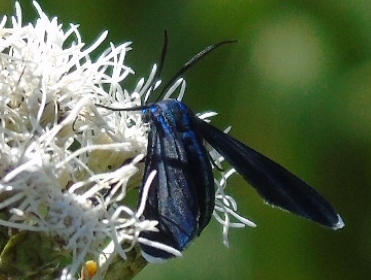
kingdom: Animalia
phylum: Arthropoda
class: Insecta
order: Lepidoptera
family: Erebidae
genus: Uranophora
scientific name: Uranophora leucotela
